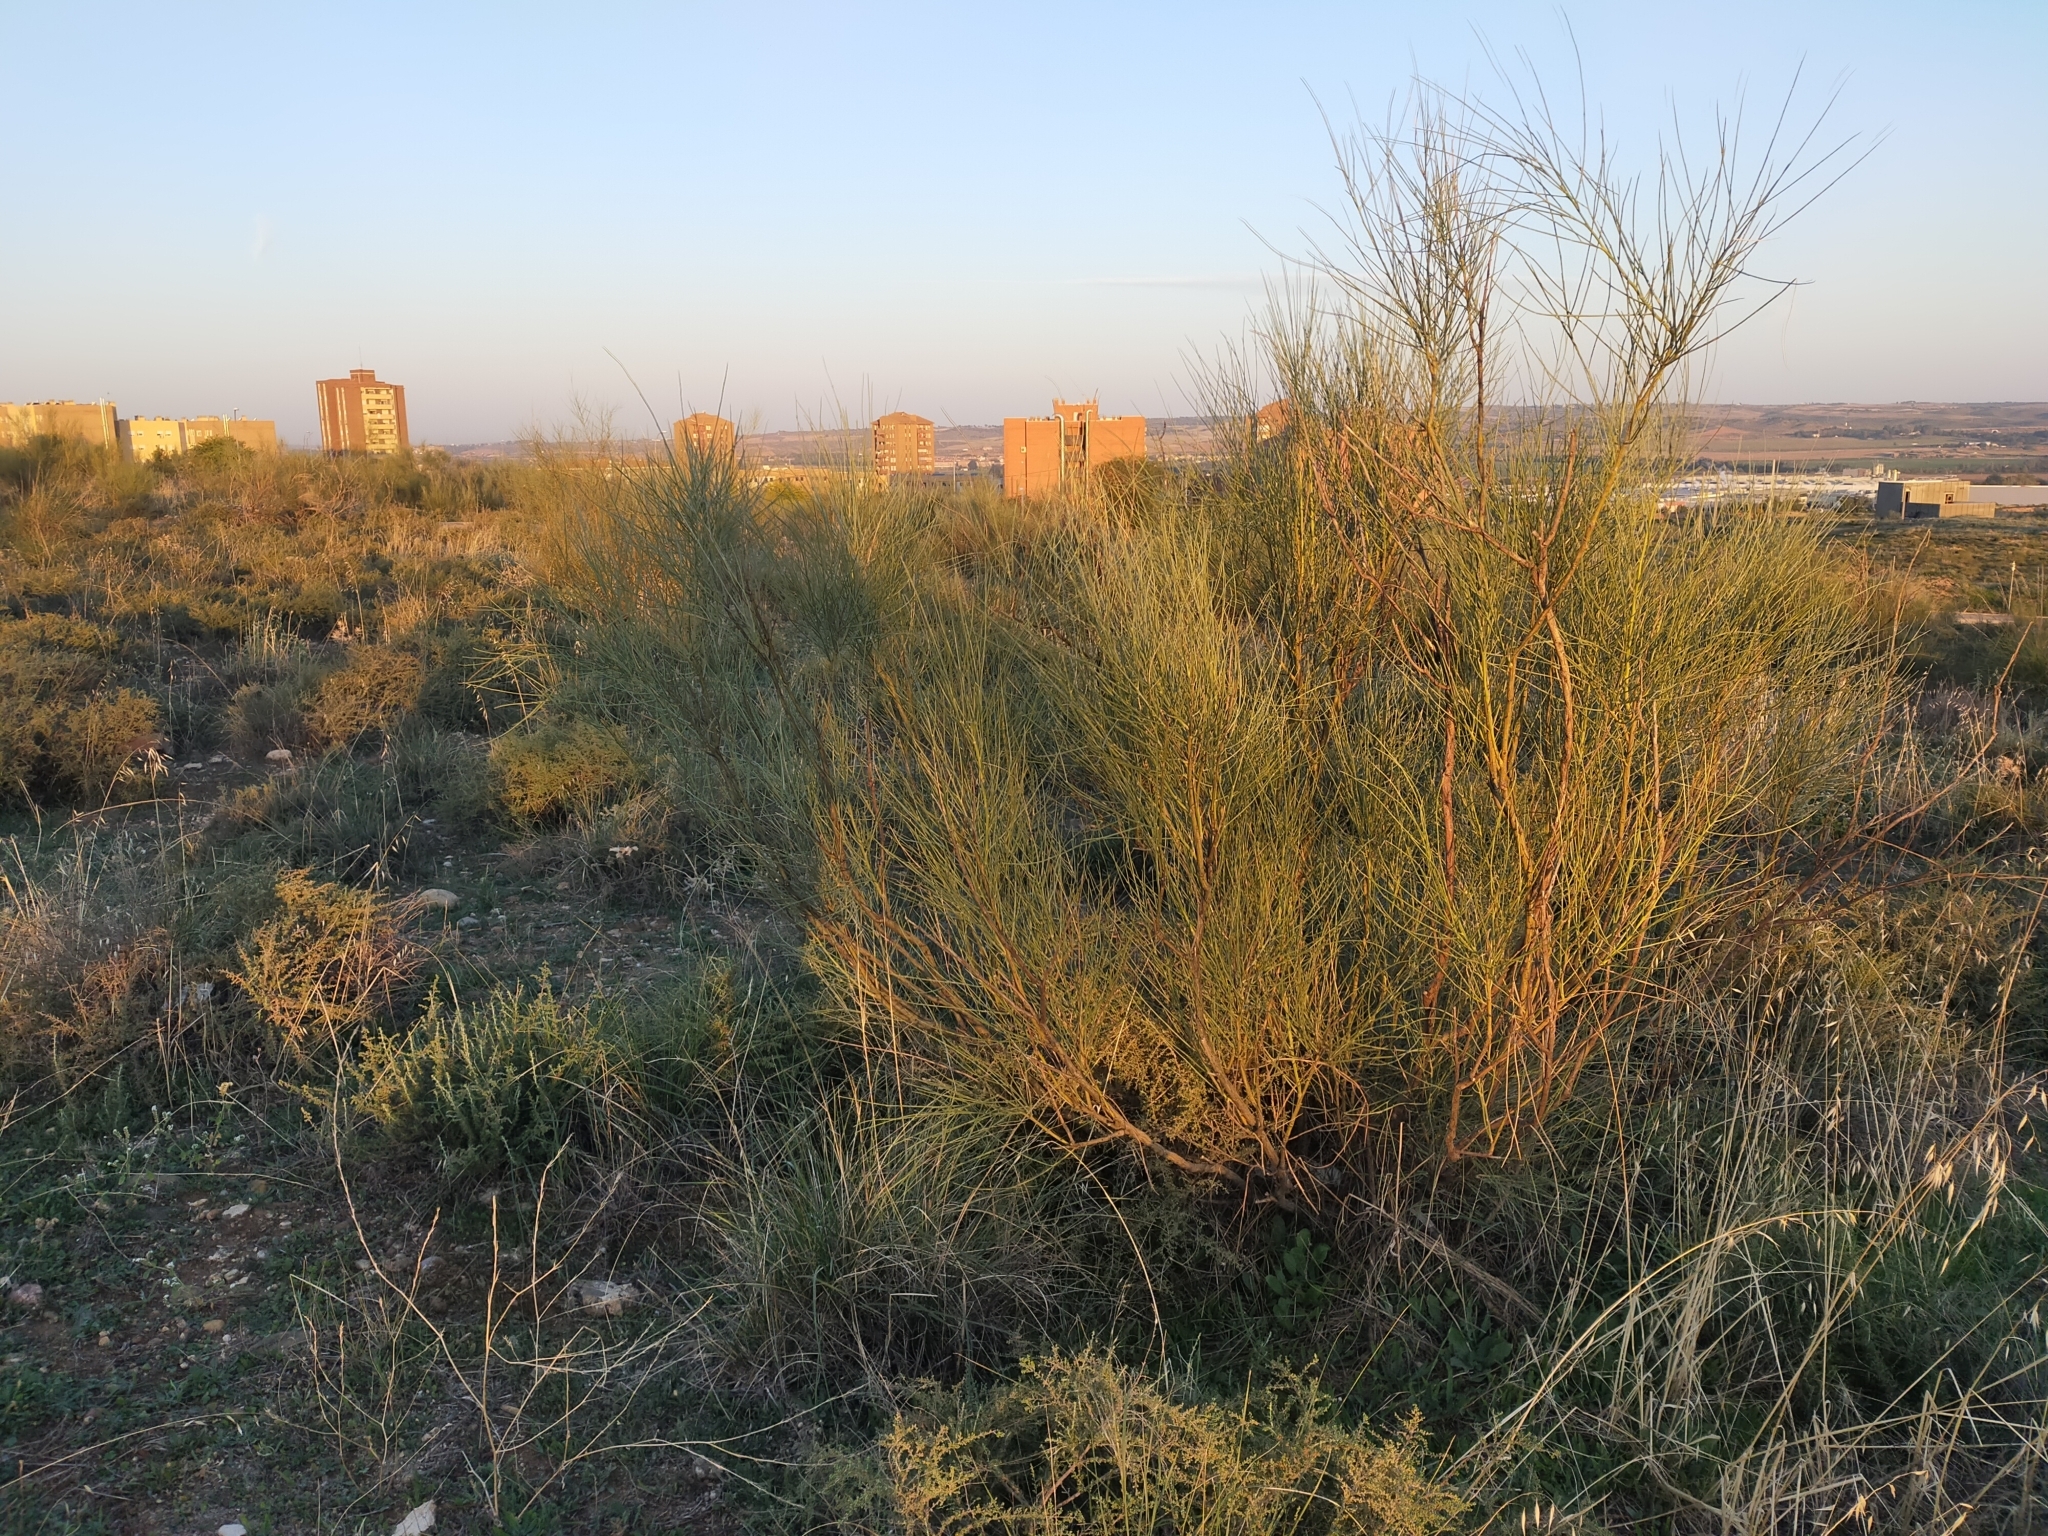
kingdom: Plantae
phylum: Tracheophyta
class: Magnoliopsida
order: Fabales
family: Fabaceae
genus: Retama
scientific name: Retama sphaerocarpa
